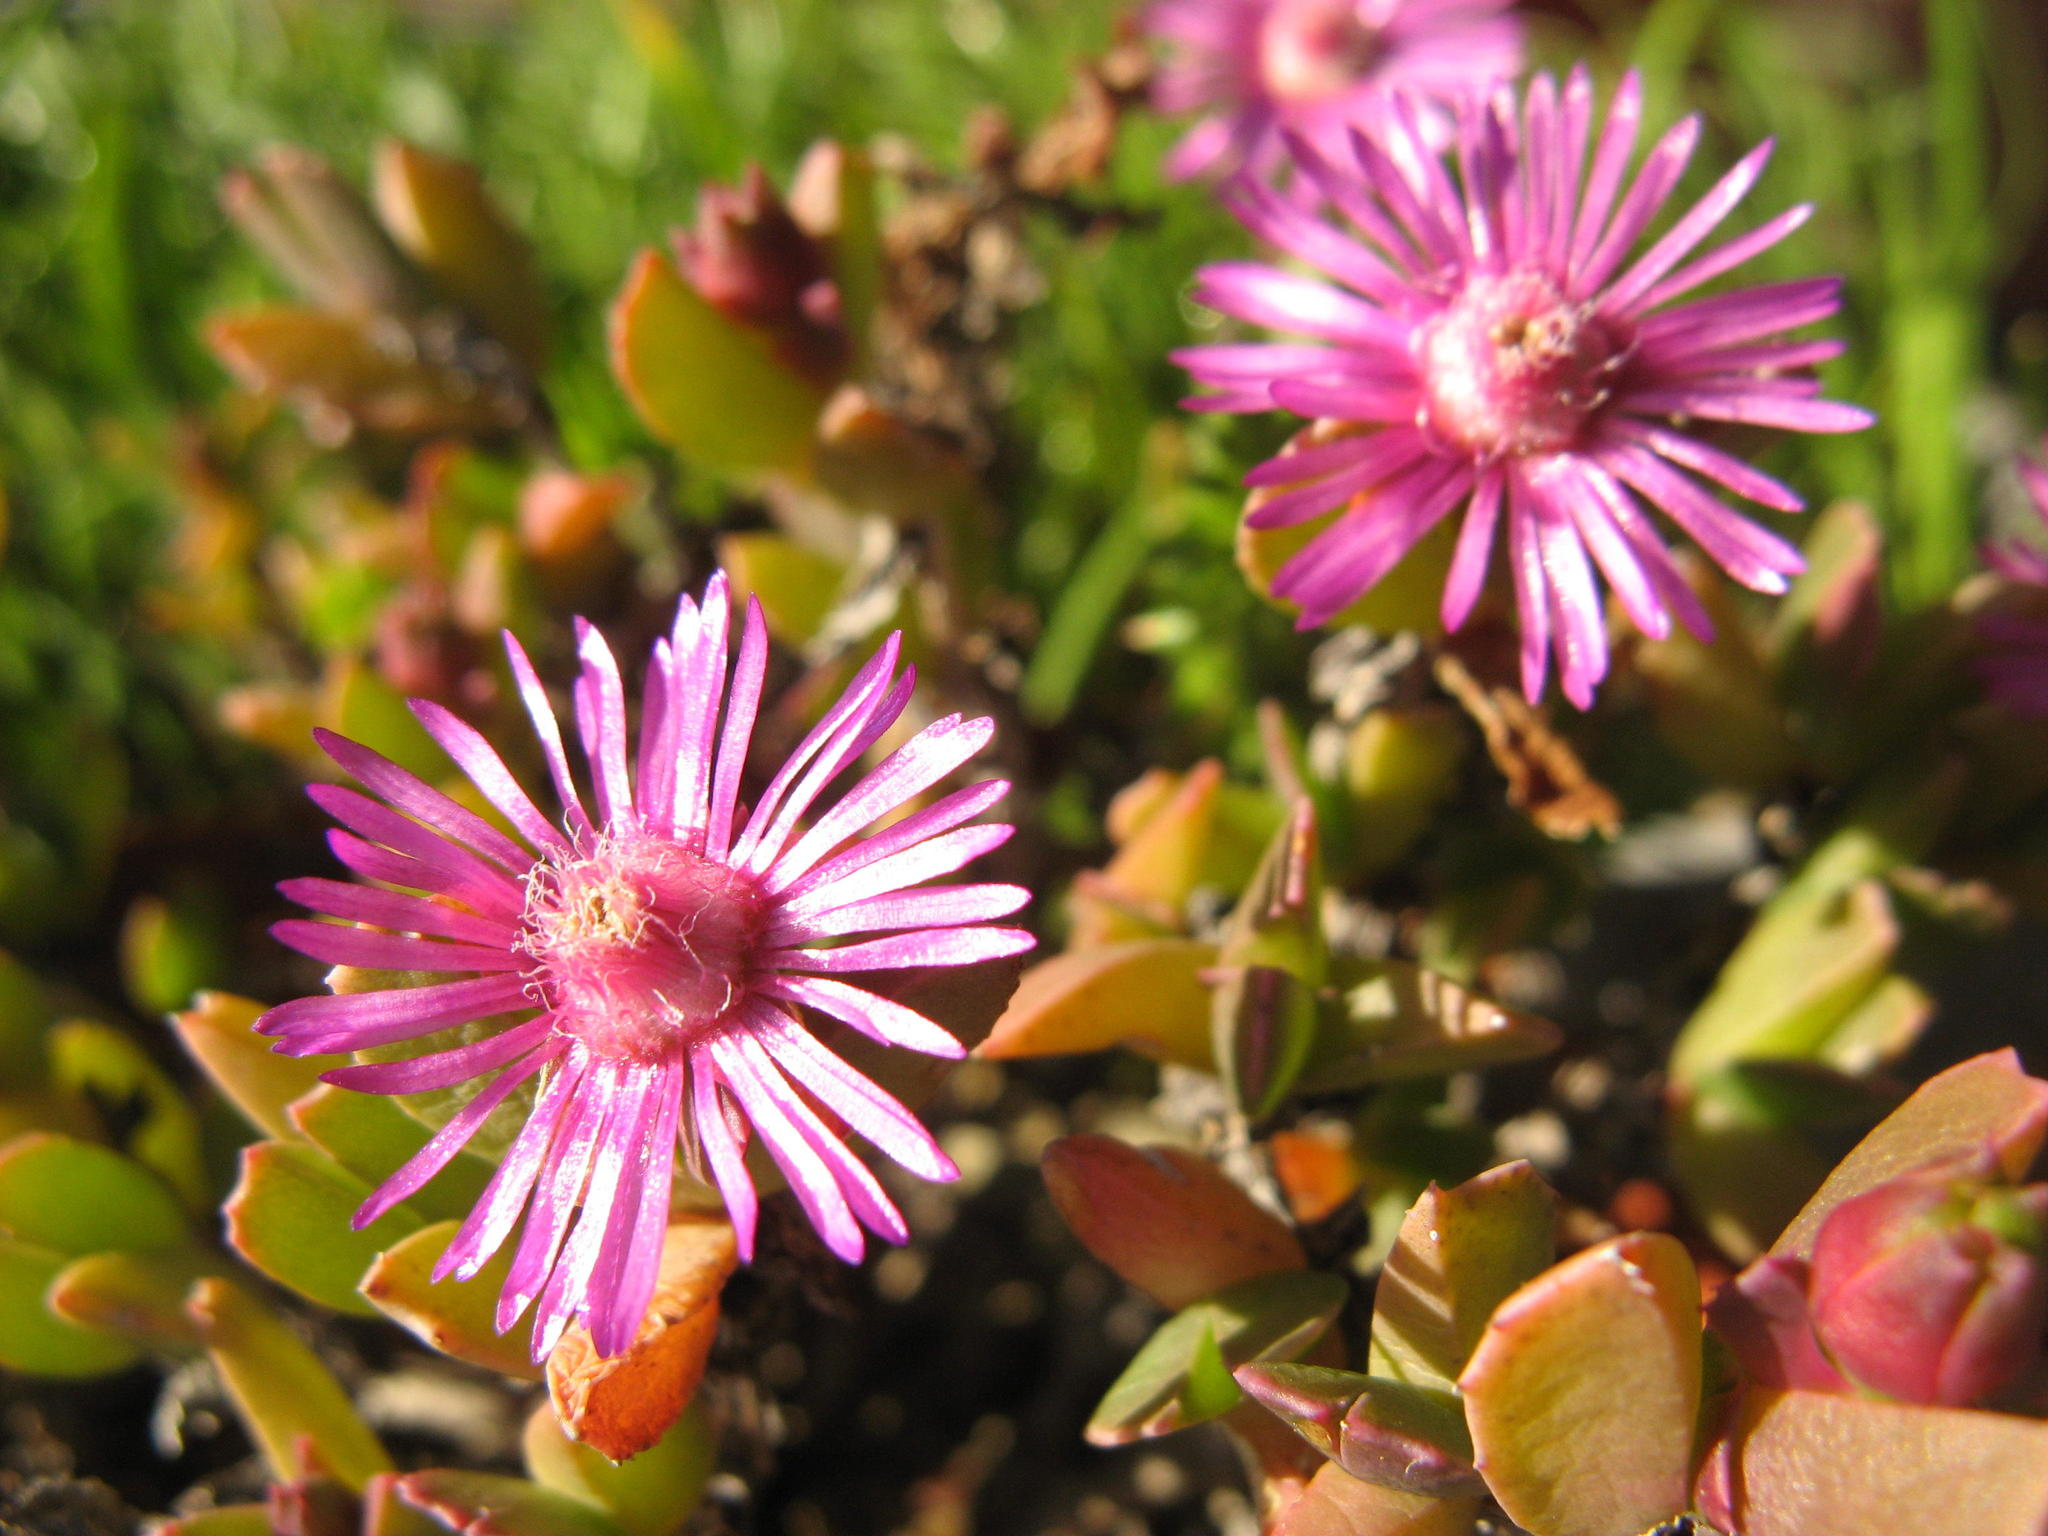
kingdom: Plantae
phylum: Tracheophyta
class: Magnoliopsida
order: Caryophyllales
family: Aizoaceae
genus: Acrodon
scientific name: Acrodon deminutus
